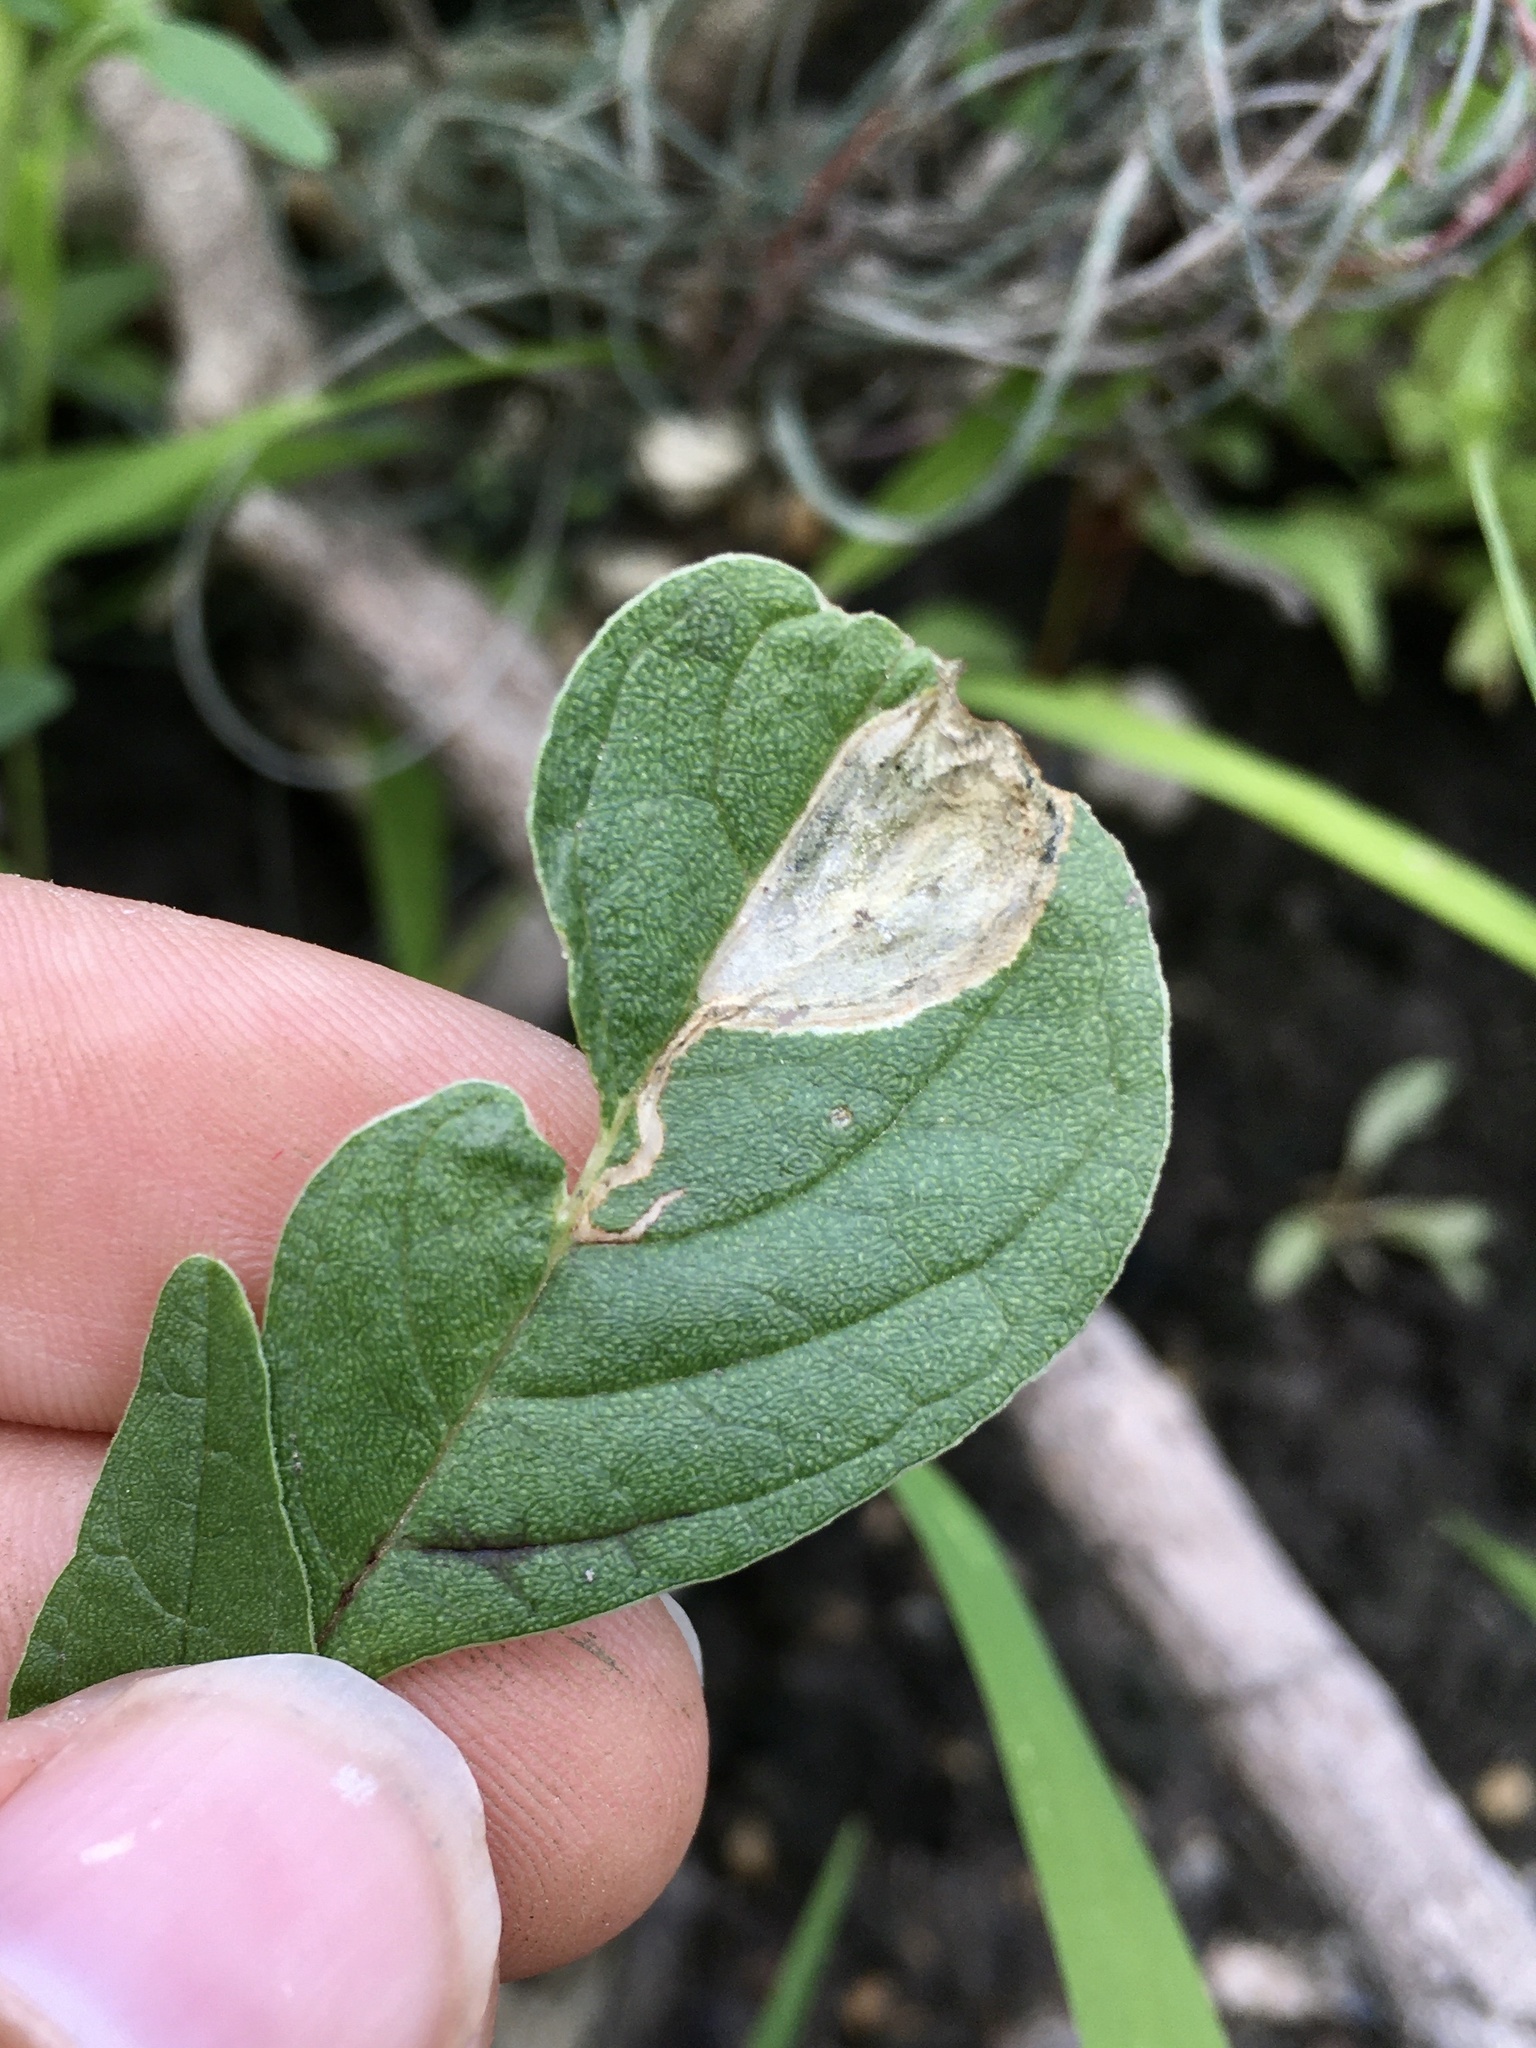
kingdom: Animalia
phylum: Arthropoda
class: Insecta
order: Diptera
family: Anthomyiidae
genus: Pegomya
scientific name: Pegomya wygodzinskyi
